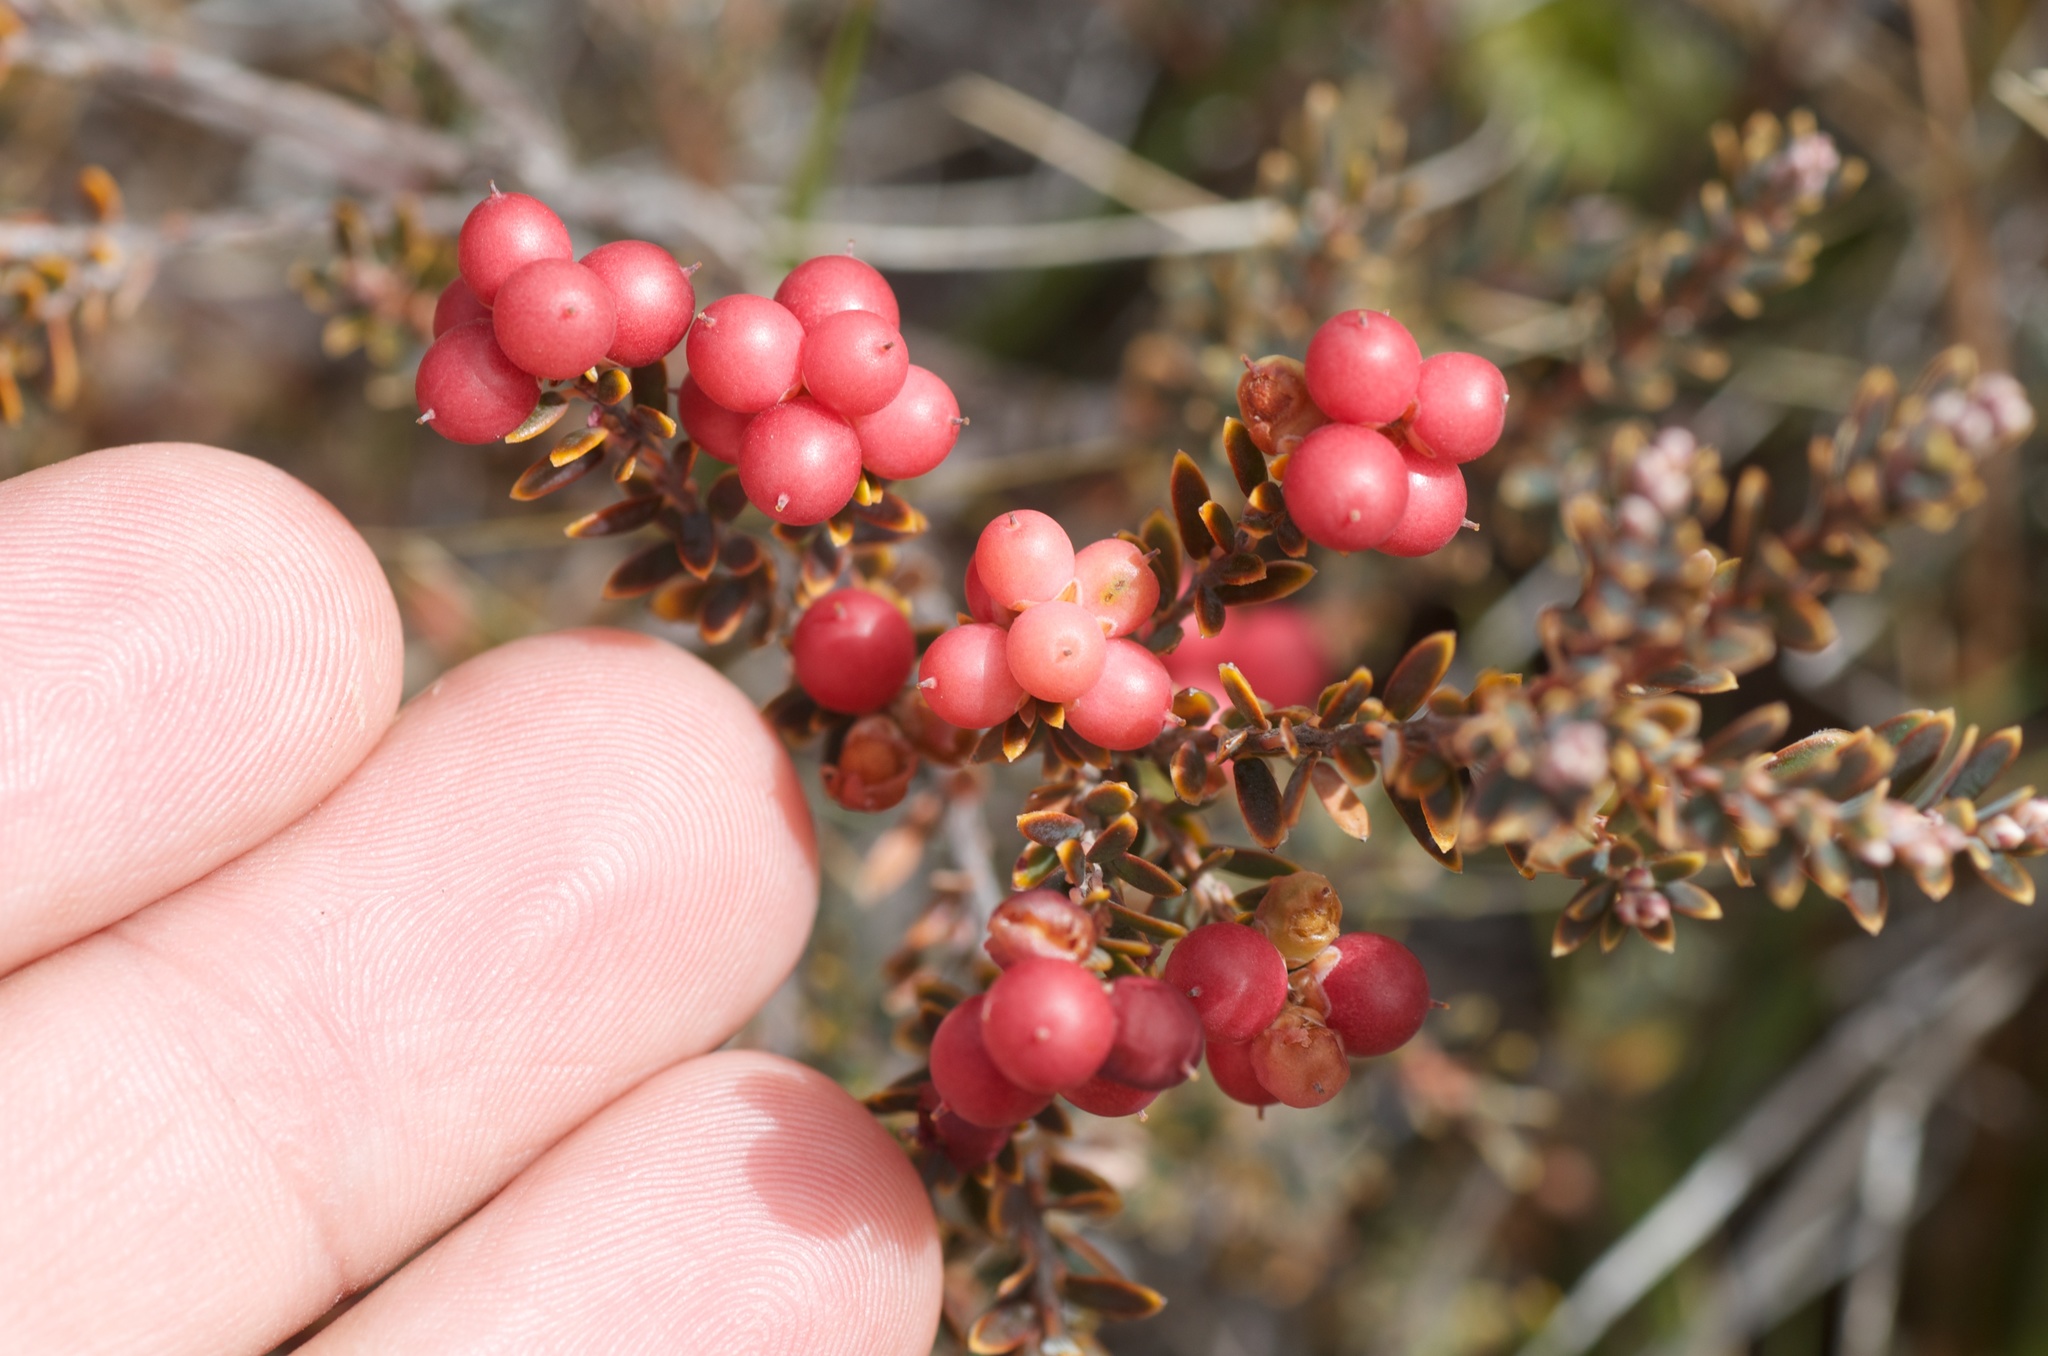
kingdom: Plantae
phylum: Tracheophyta
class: Magnoliopsida
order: Ericales
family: Ericaceae
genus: Acrothamnus
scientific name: Acrothamnus colensoi
